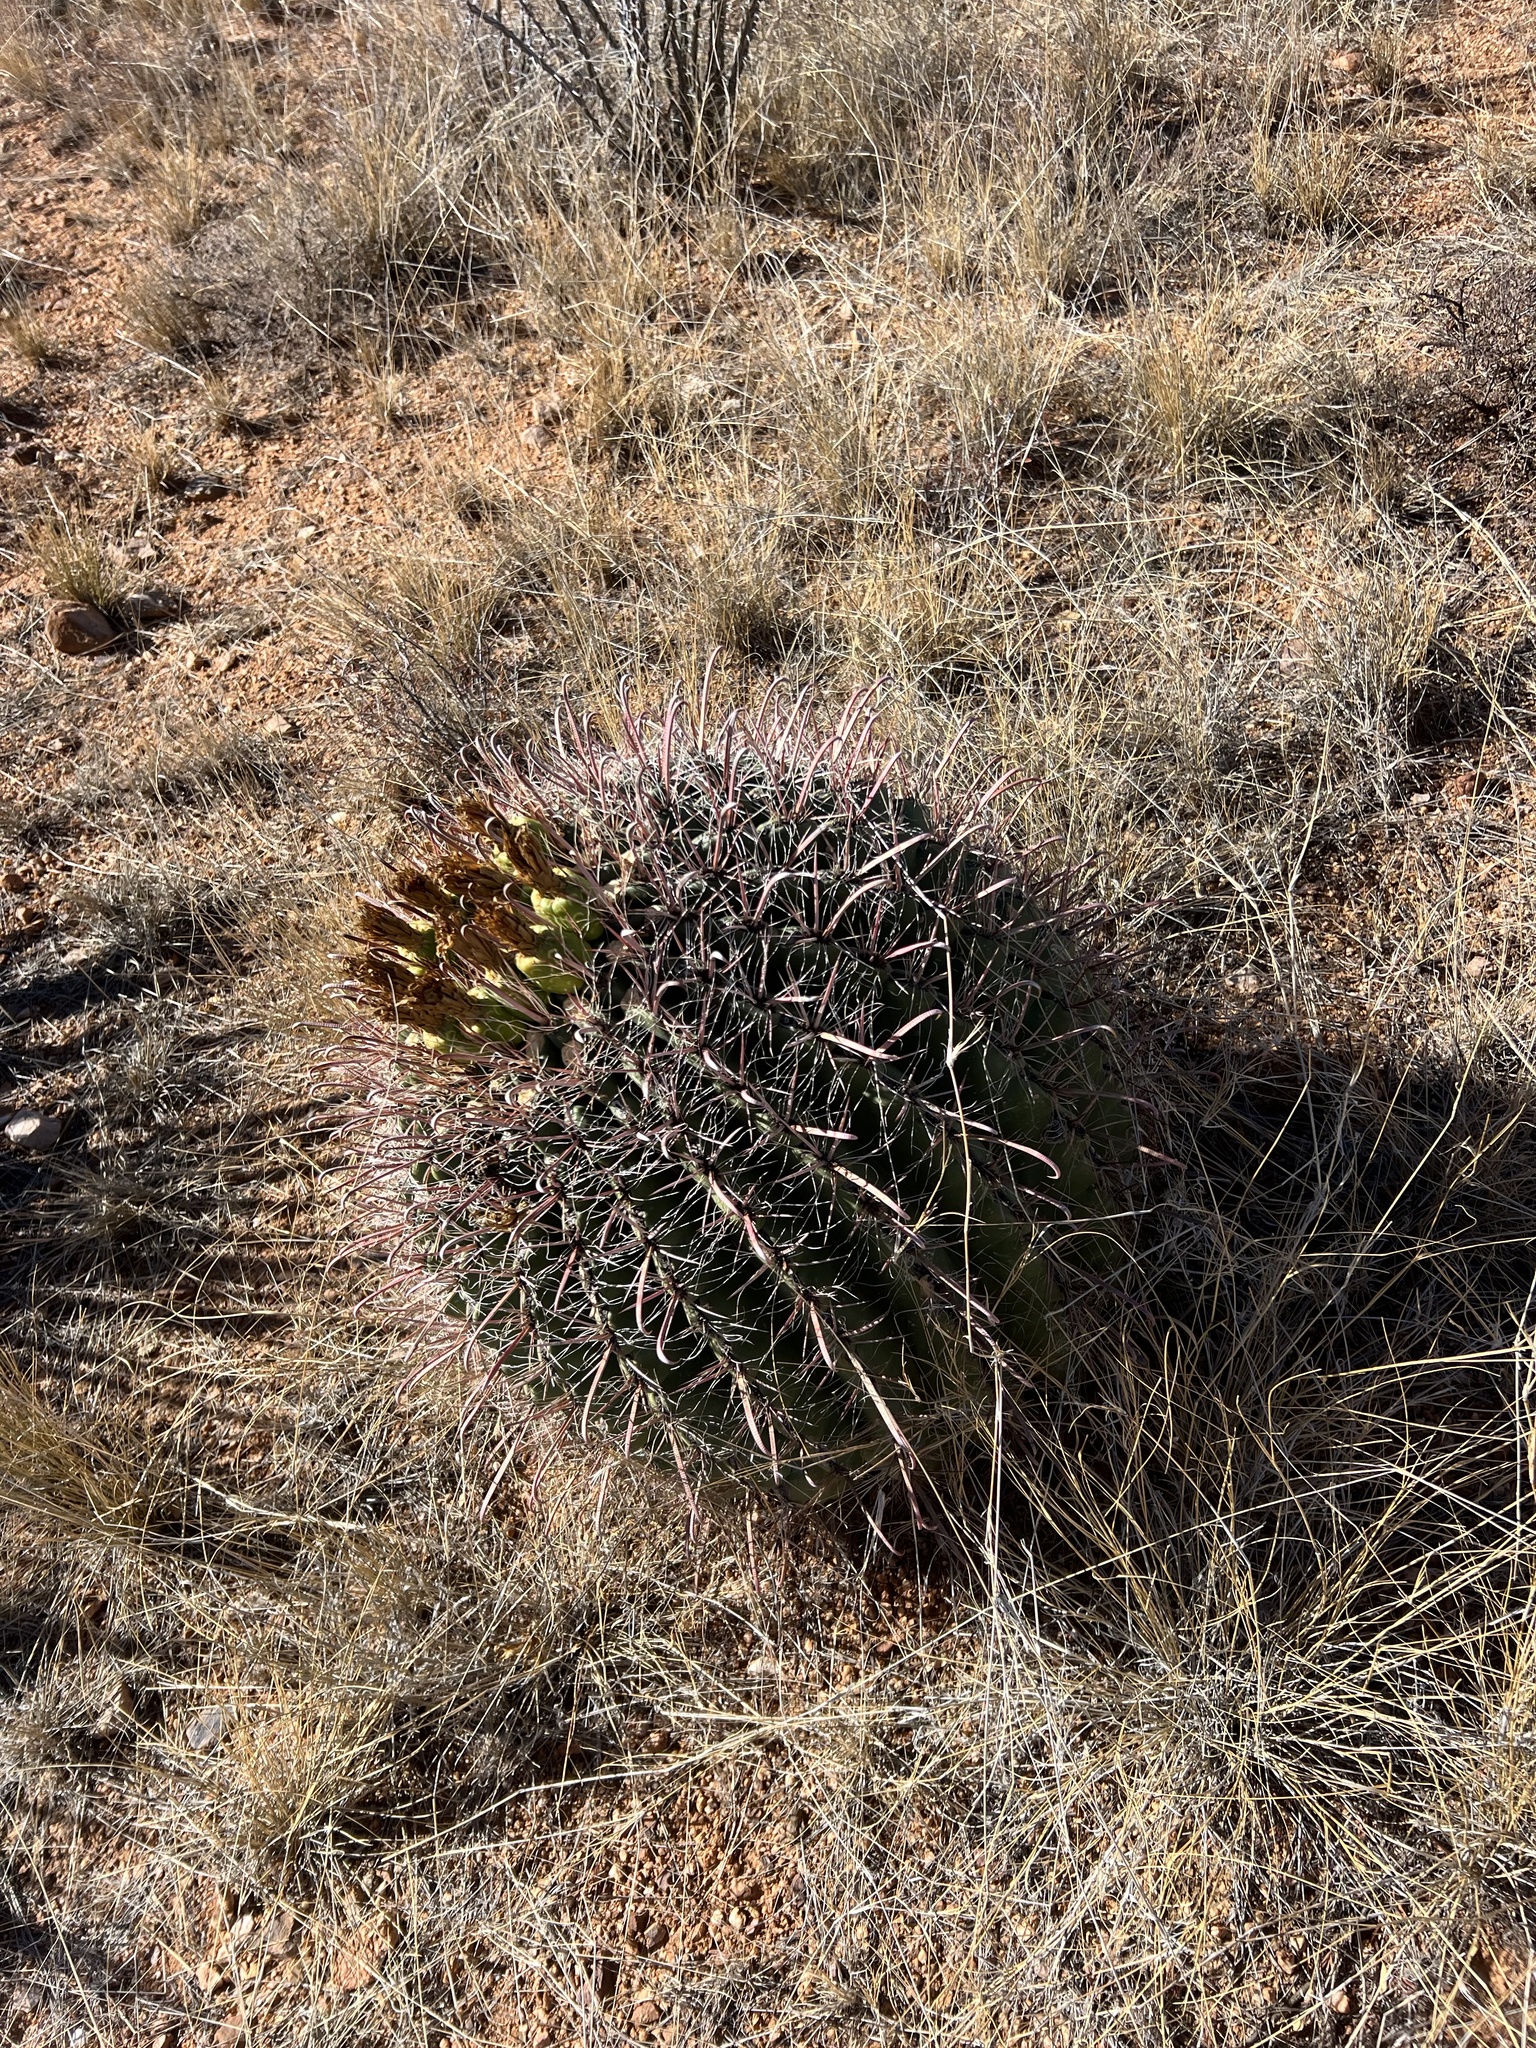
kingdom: Plantae
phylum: Tracheophyta
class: Magnoliopsida
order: Caryophyllales
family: Cactaceae
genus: Ferocactus
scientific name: Ferocactus wislizeni
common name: Candy barrel cactus
